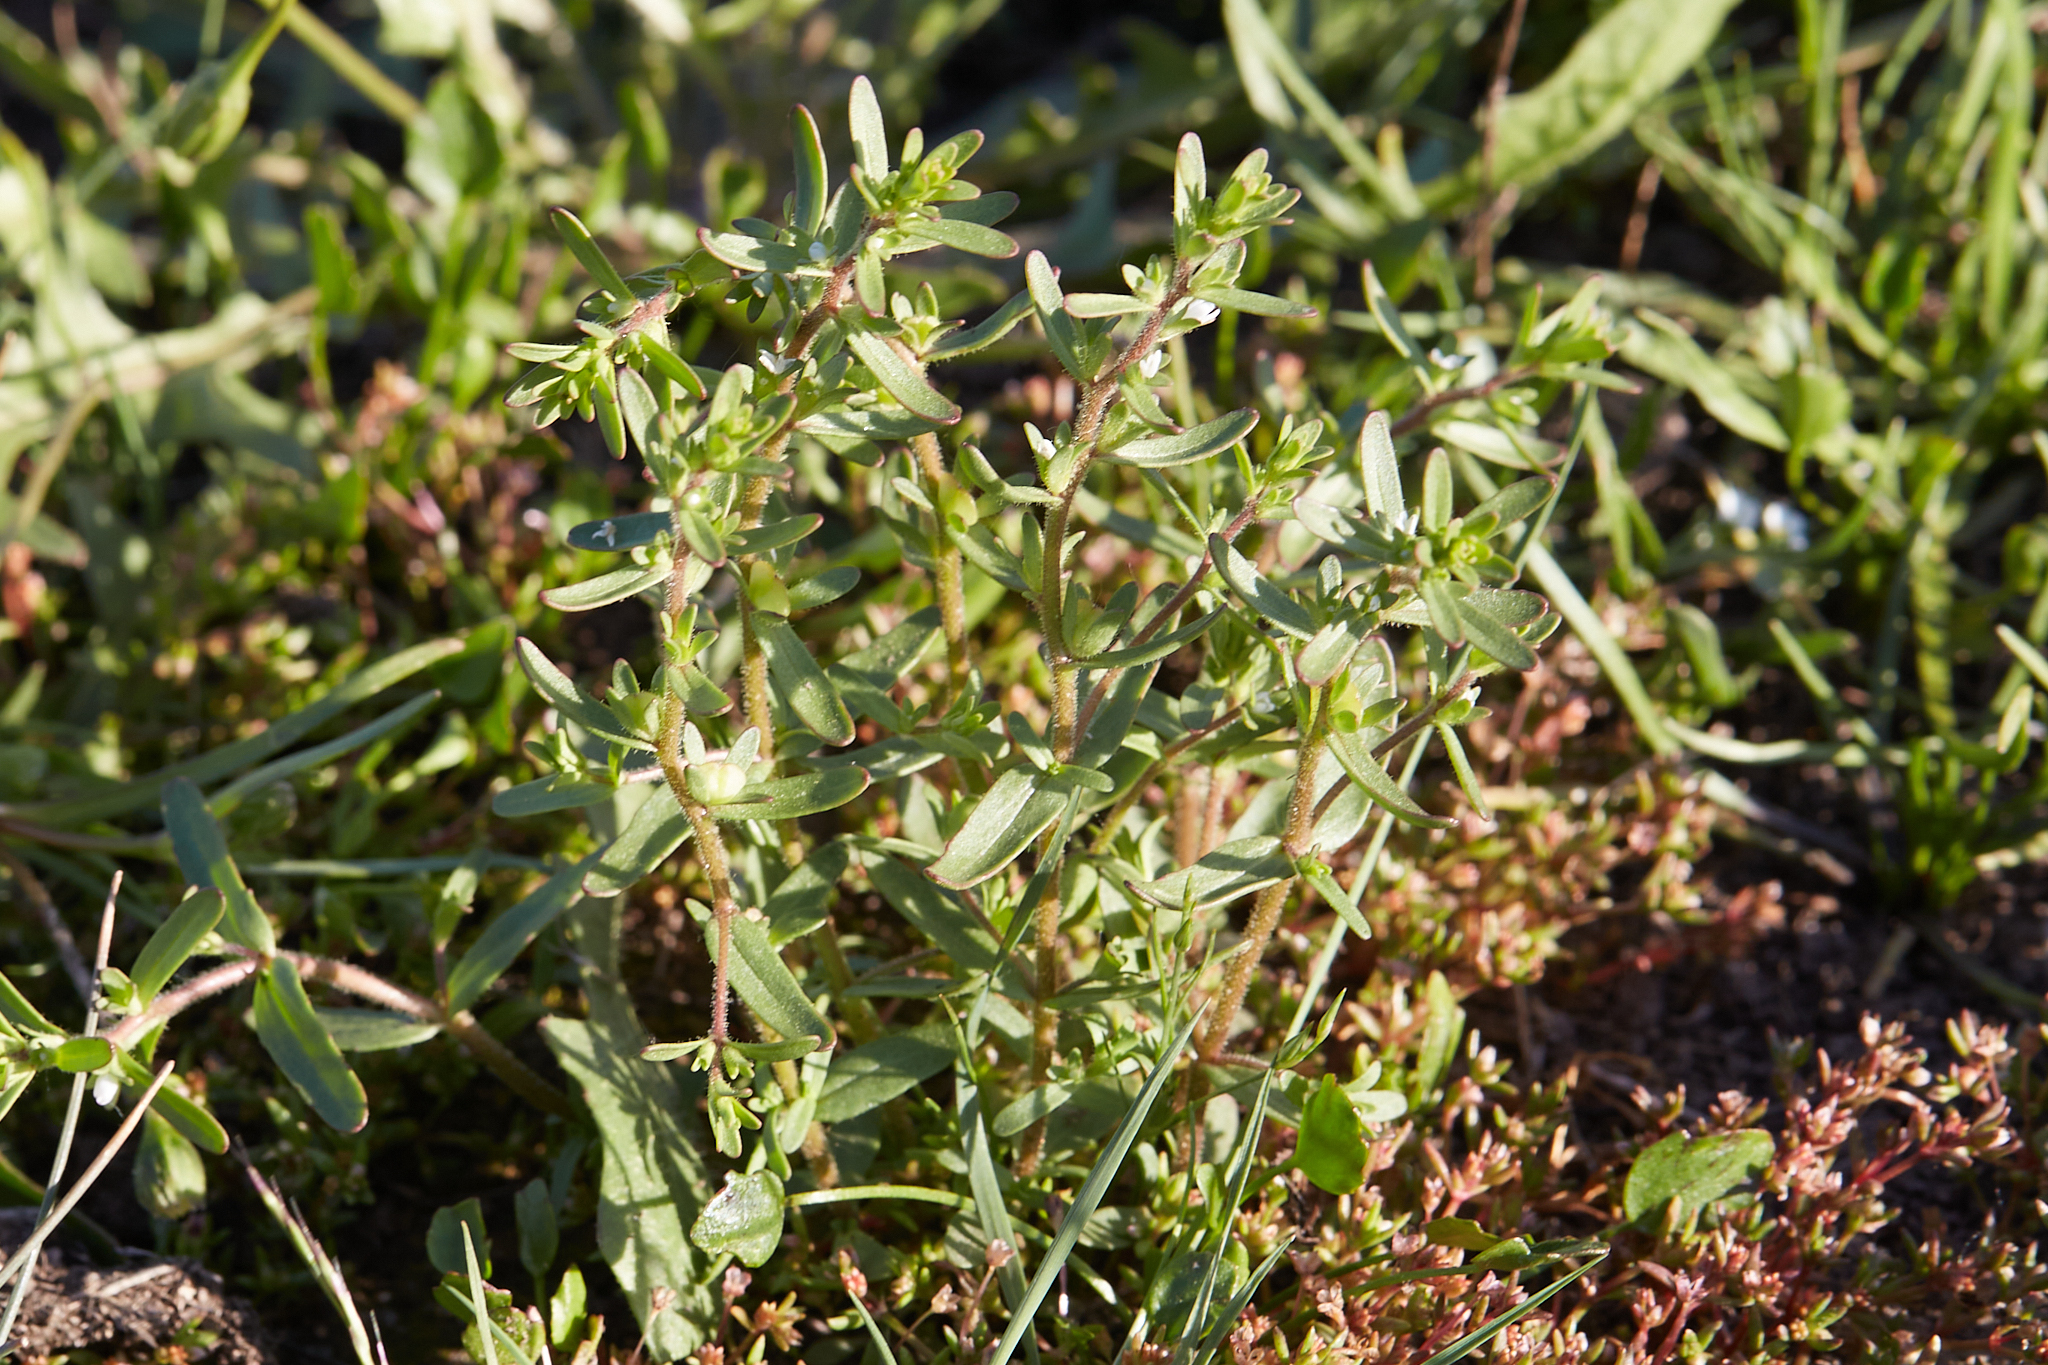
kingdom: Plantae
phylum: Tracheophyta
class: Magnoliopsida
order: Lamiales
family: Plantaginaceae
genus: Veronica
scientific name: Veronica peregrina
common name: Neckweed
